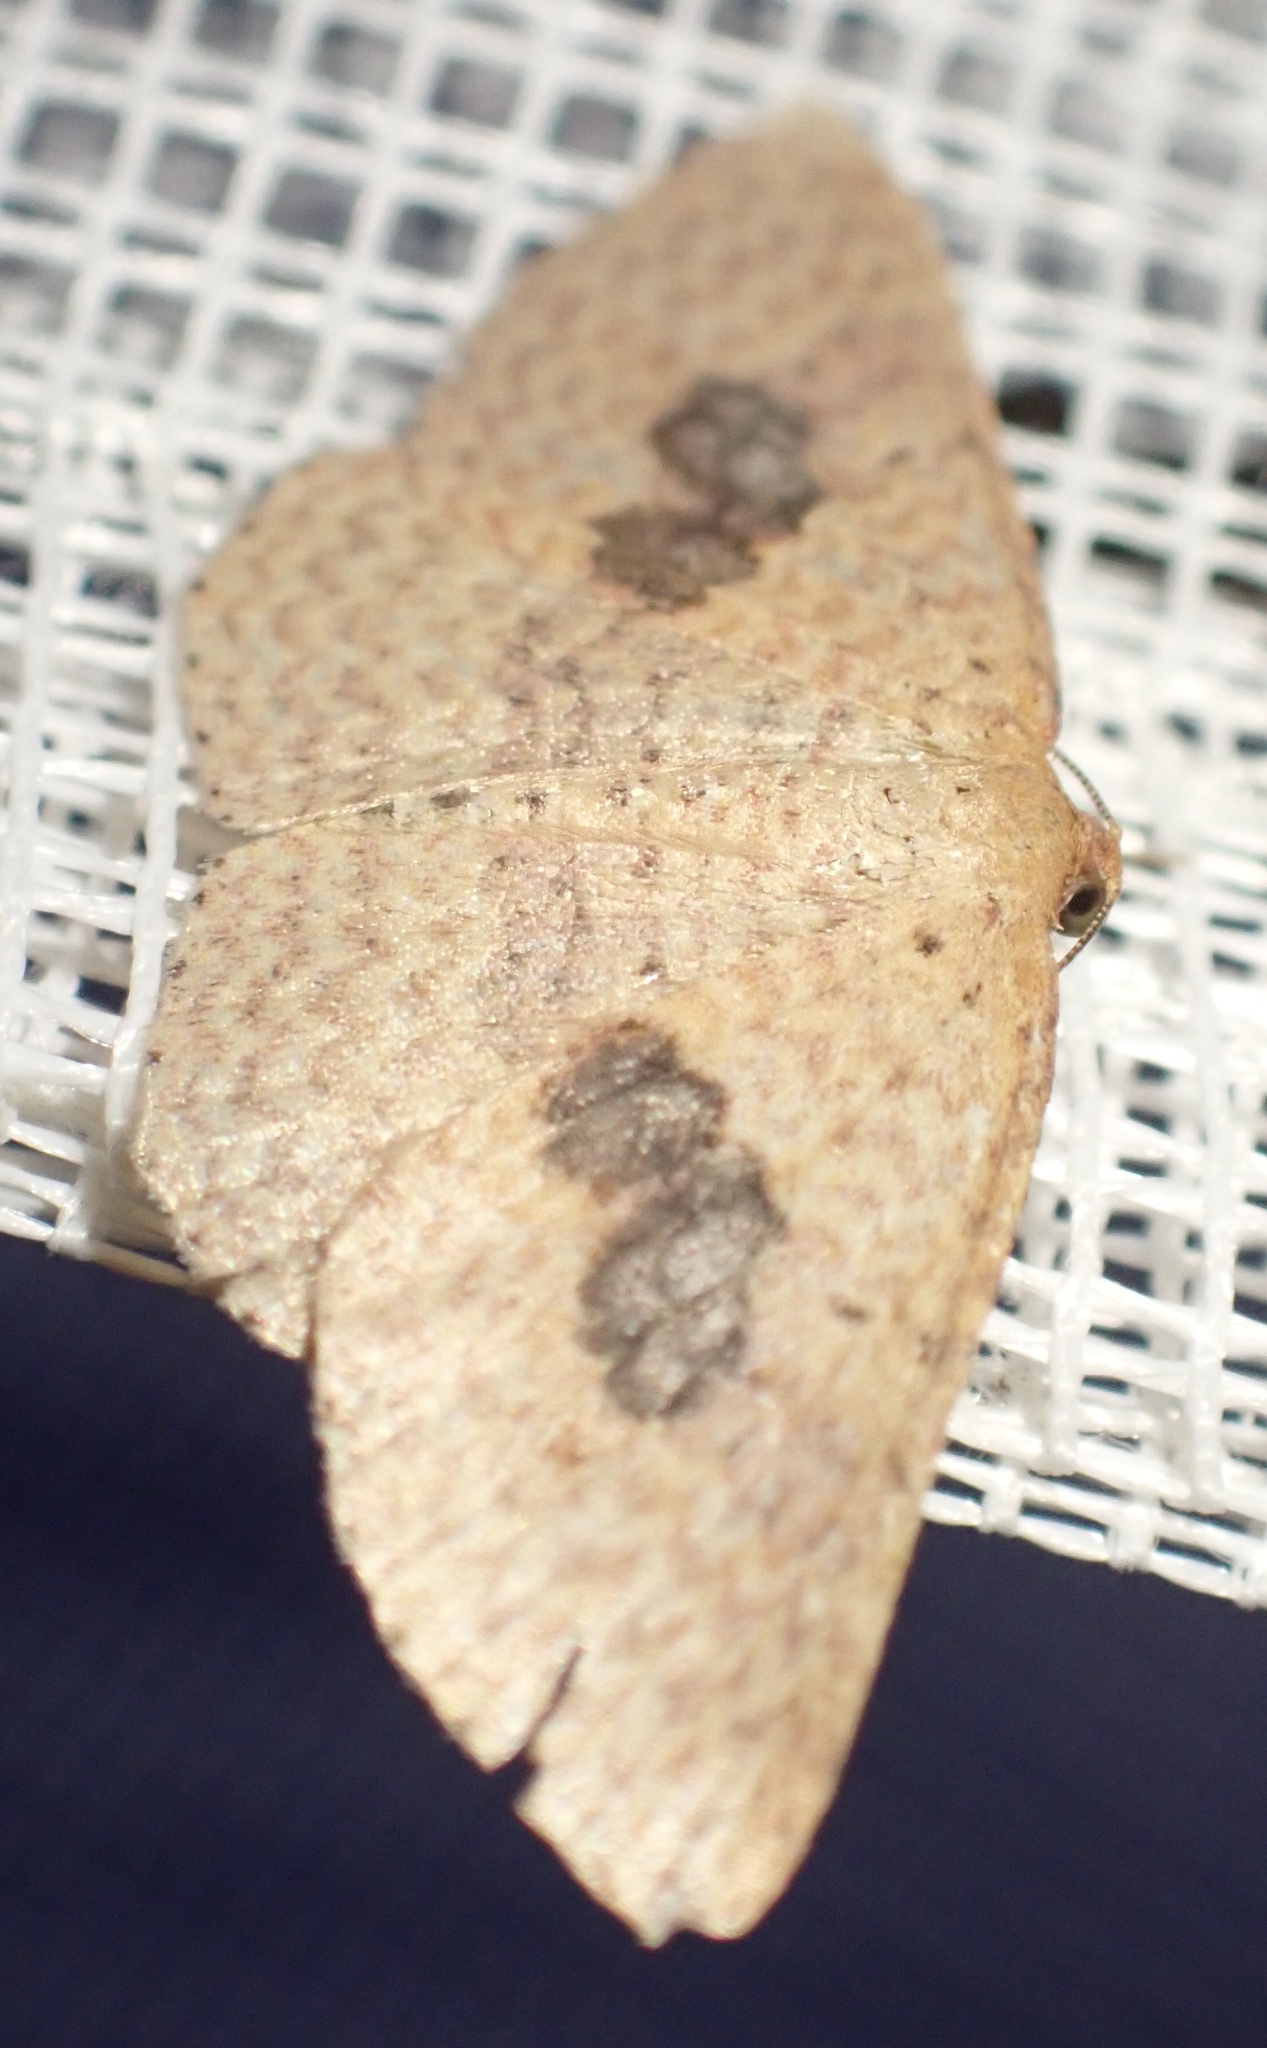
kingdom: Animalia
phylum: Arthropoda
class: Insecta
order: Lepidoptera
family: Geometridae
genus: Epicyme
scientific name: Epicyme rubropunctaria
